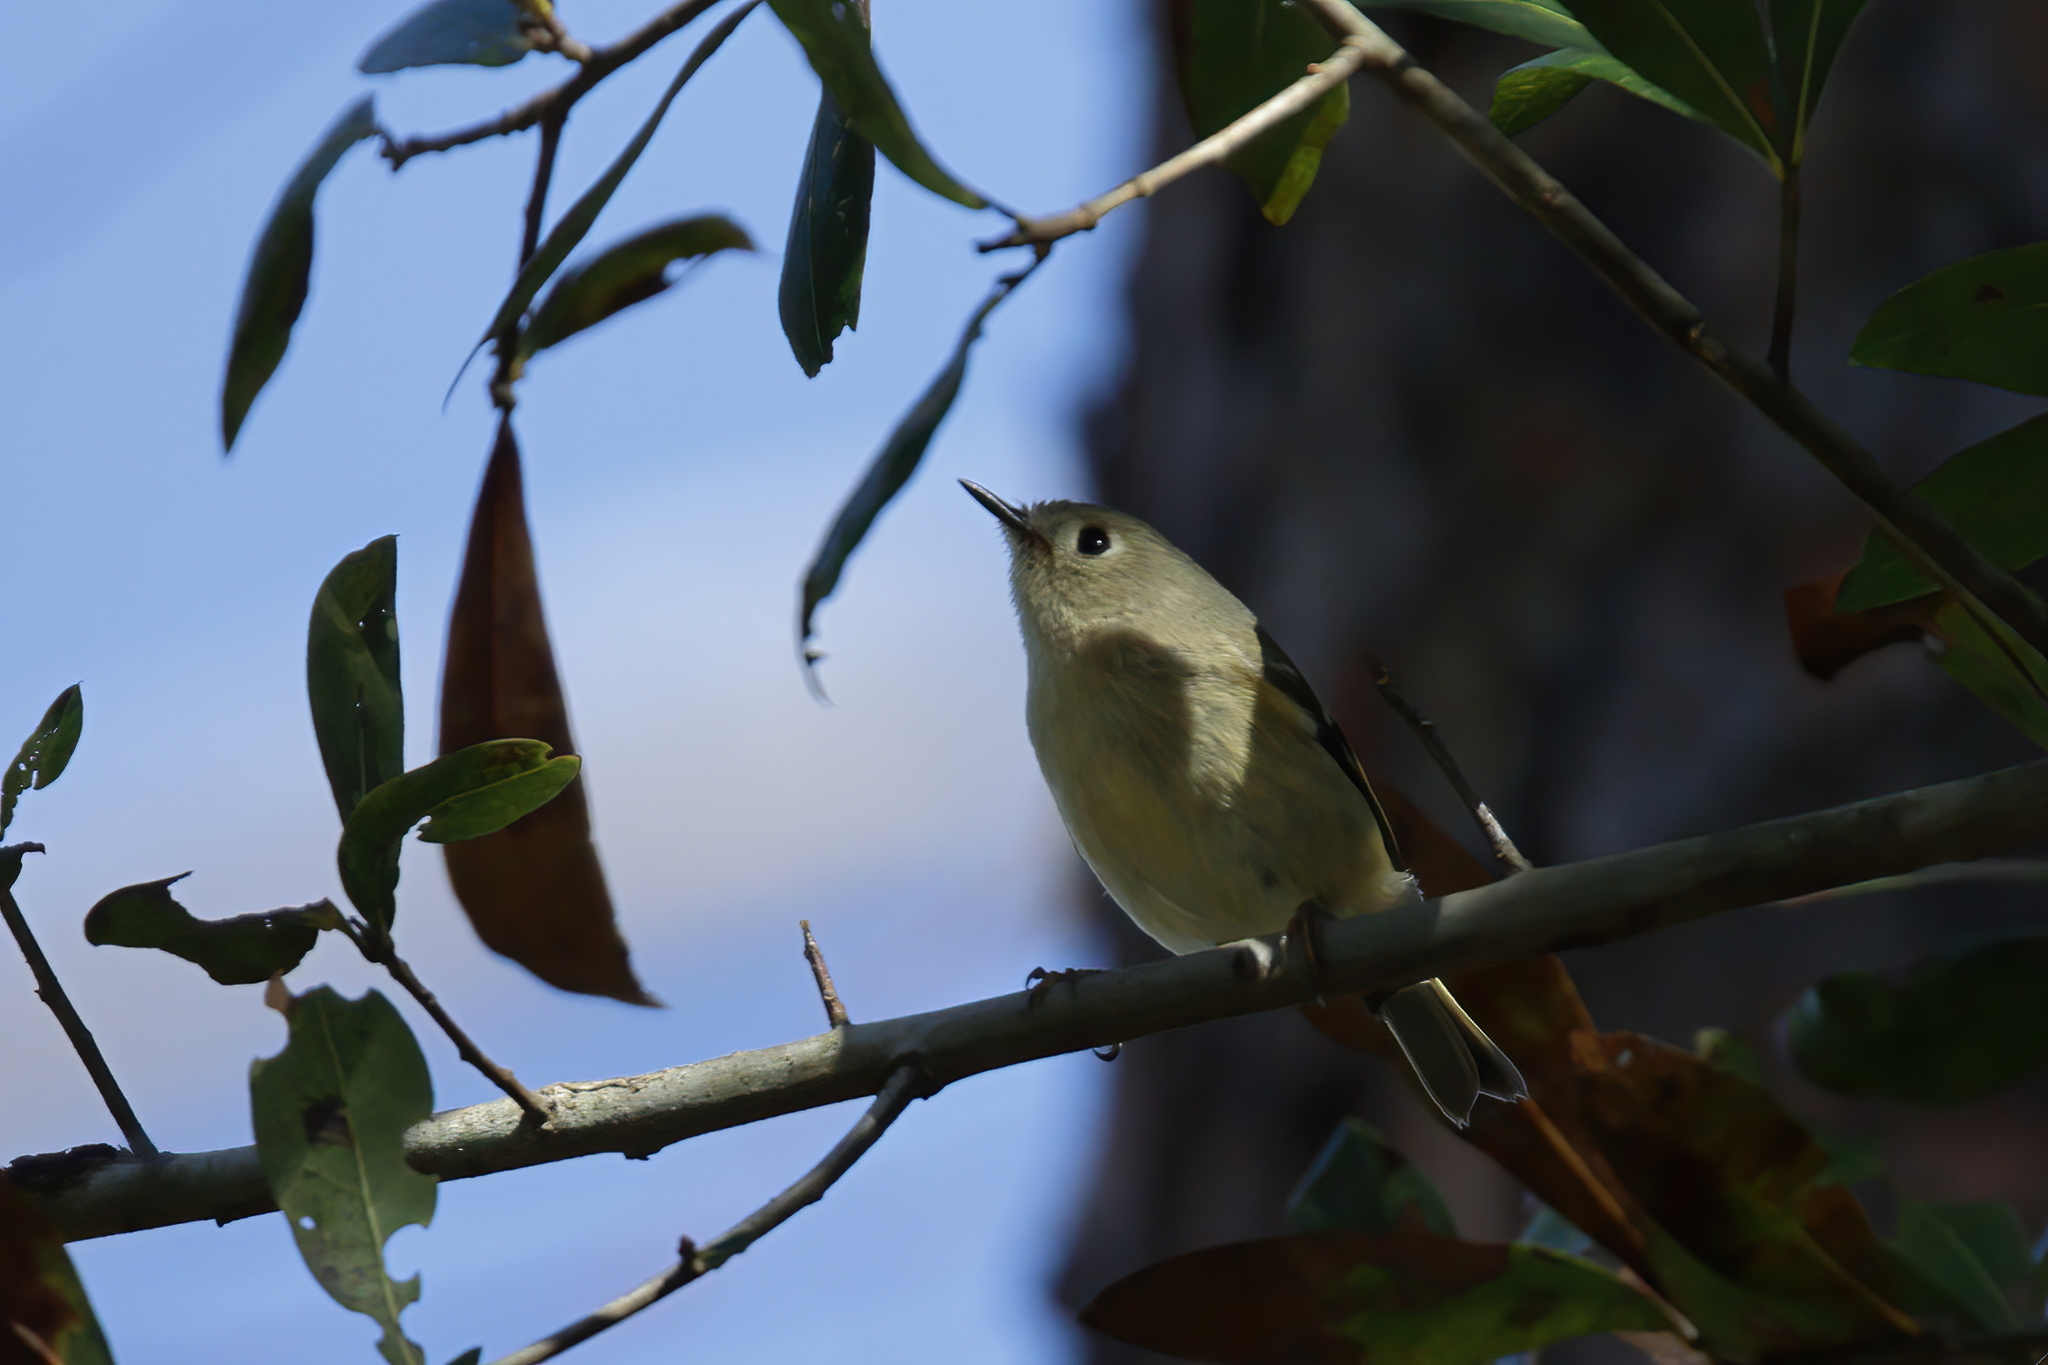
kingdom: Animalia
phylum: Chordata
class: Aves
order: Passeriformes
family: Regulidae
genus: Regulus
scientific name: Regulus calendula
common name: Ruby-crowned kinglet
